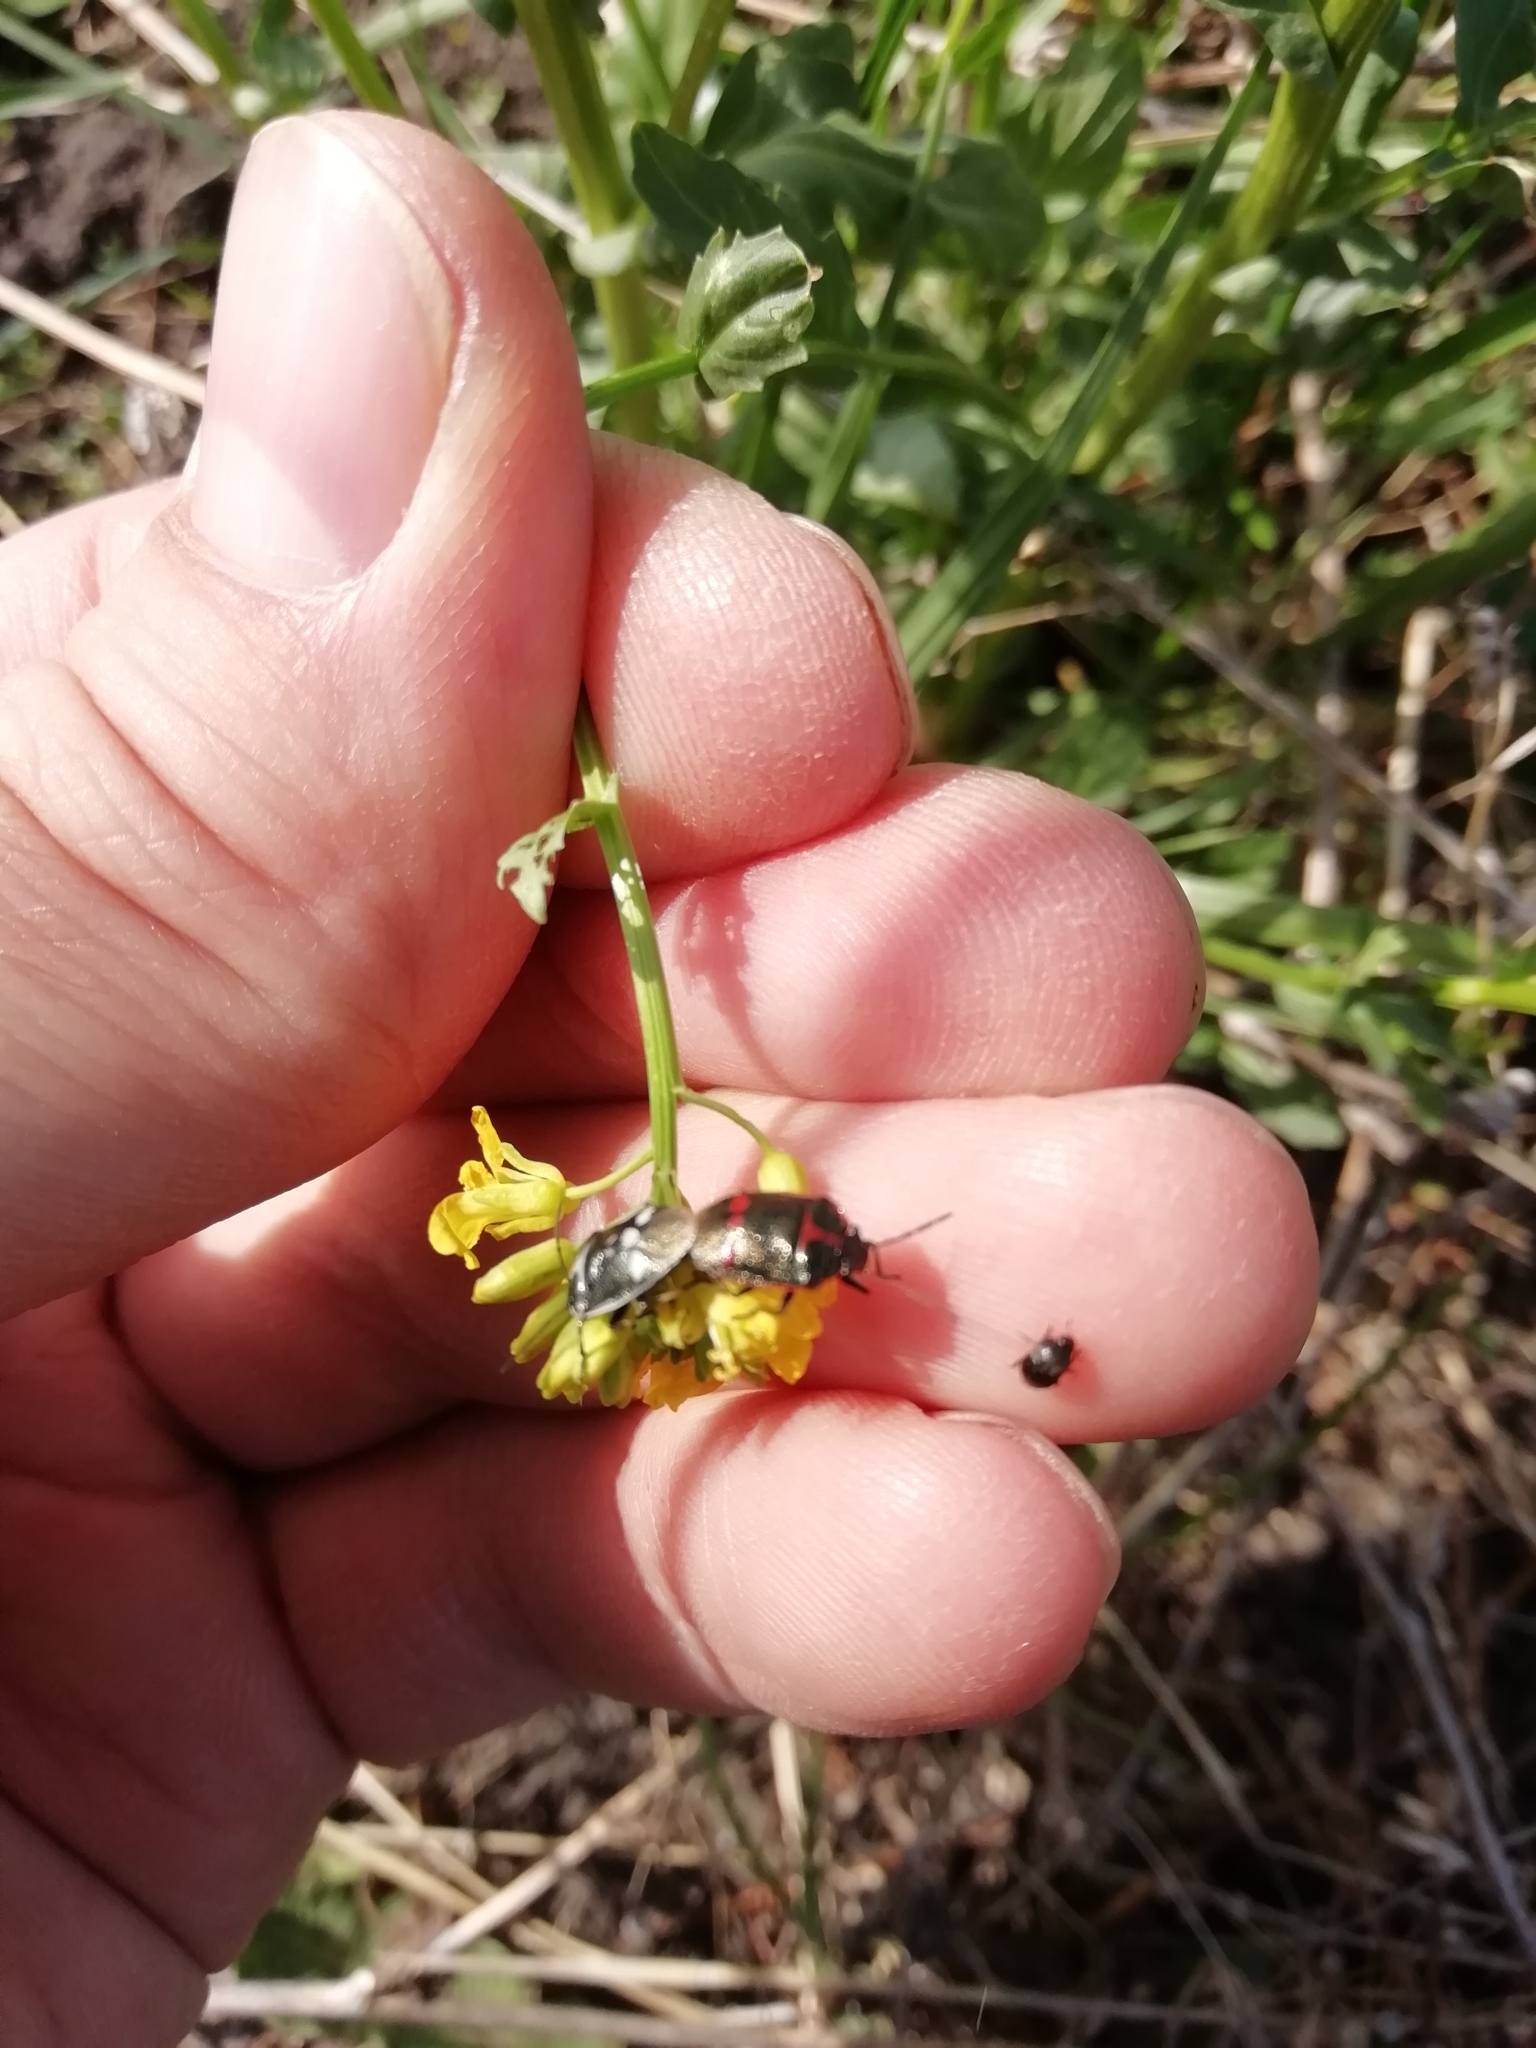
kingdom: Animalia
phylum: Arthropoda
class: Insecta
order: Hemiptera
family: Pentatomidae
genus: Eurydema
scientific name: Eurydema oleracea
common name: Cabbage bug
